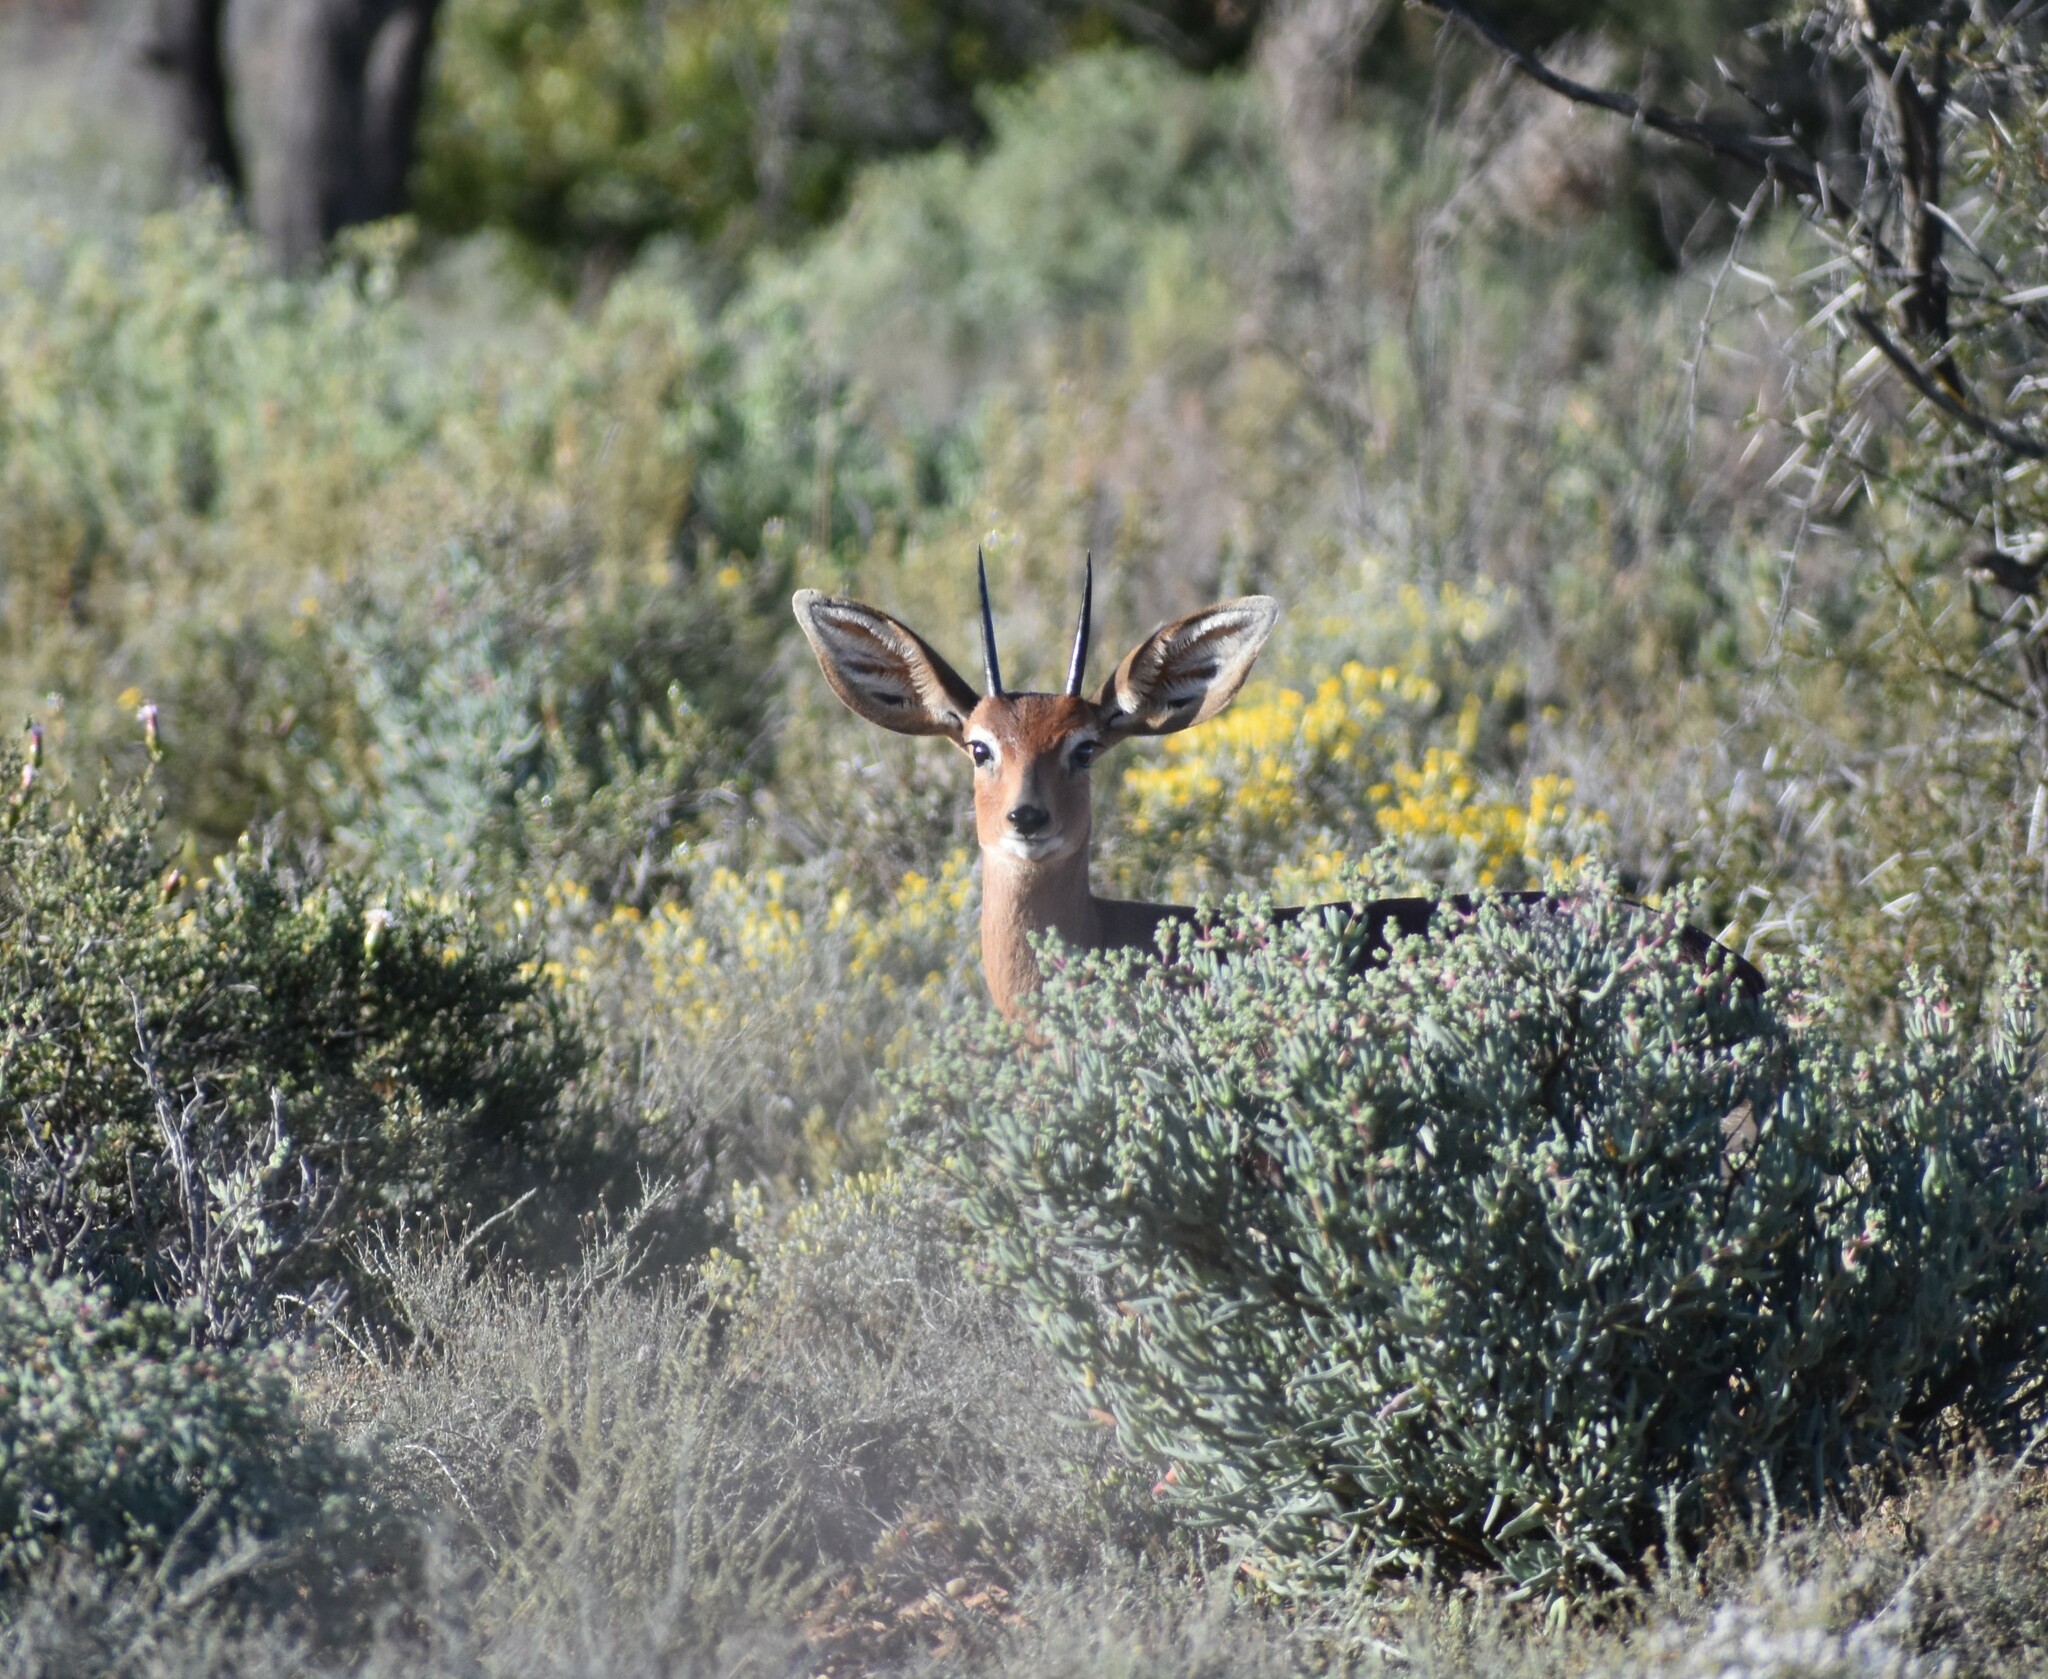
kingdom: Animalia
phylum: Chordata
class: Mammalia
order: Artiodactyla
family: Bovidae
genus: Raphicerus
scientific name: Raphicerus campestris
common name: Steenbok
